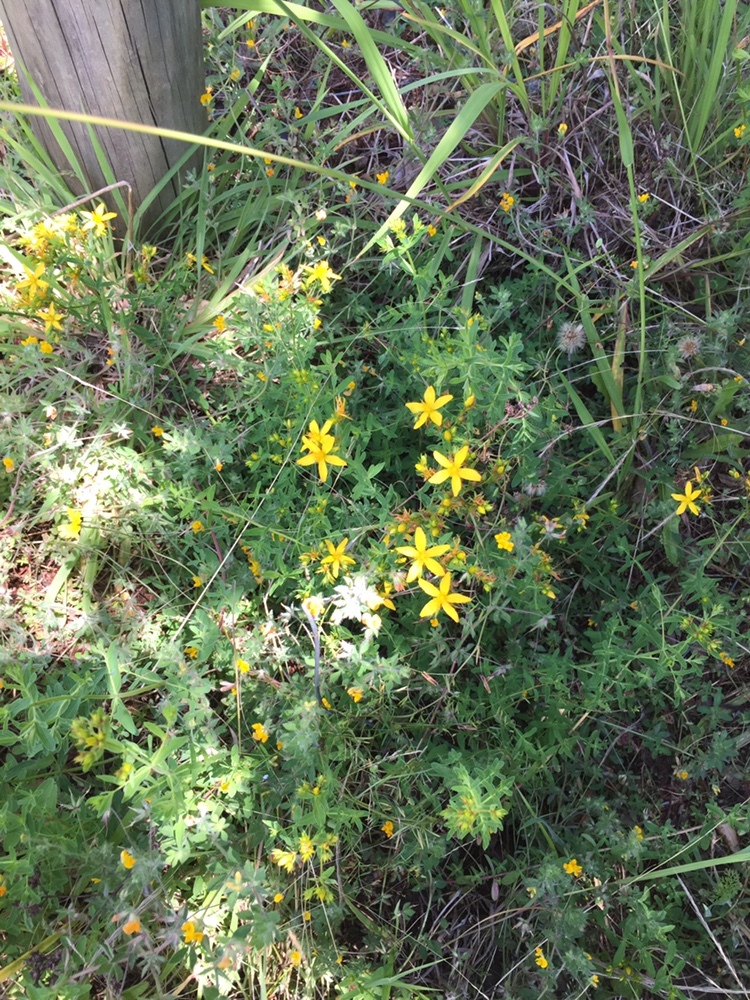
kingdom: Plantae
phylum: Tracheophyta
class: Magnoliopsida
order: Malpighiales
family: Hypericaceae
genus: Hypericum
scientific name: Hypericum perforatum
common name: Common st. johnswort
